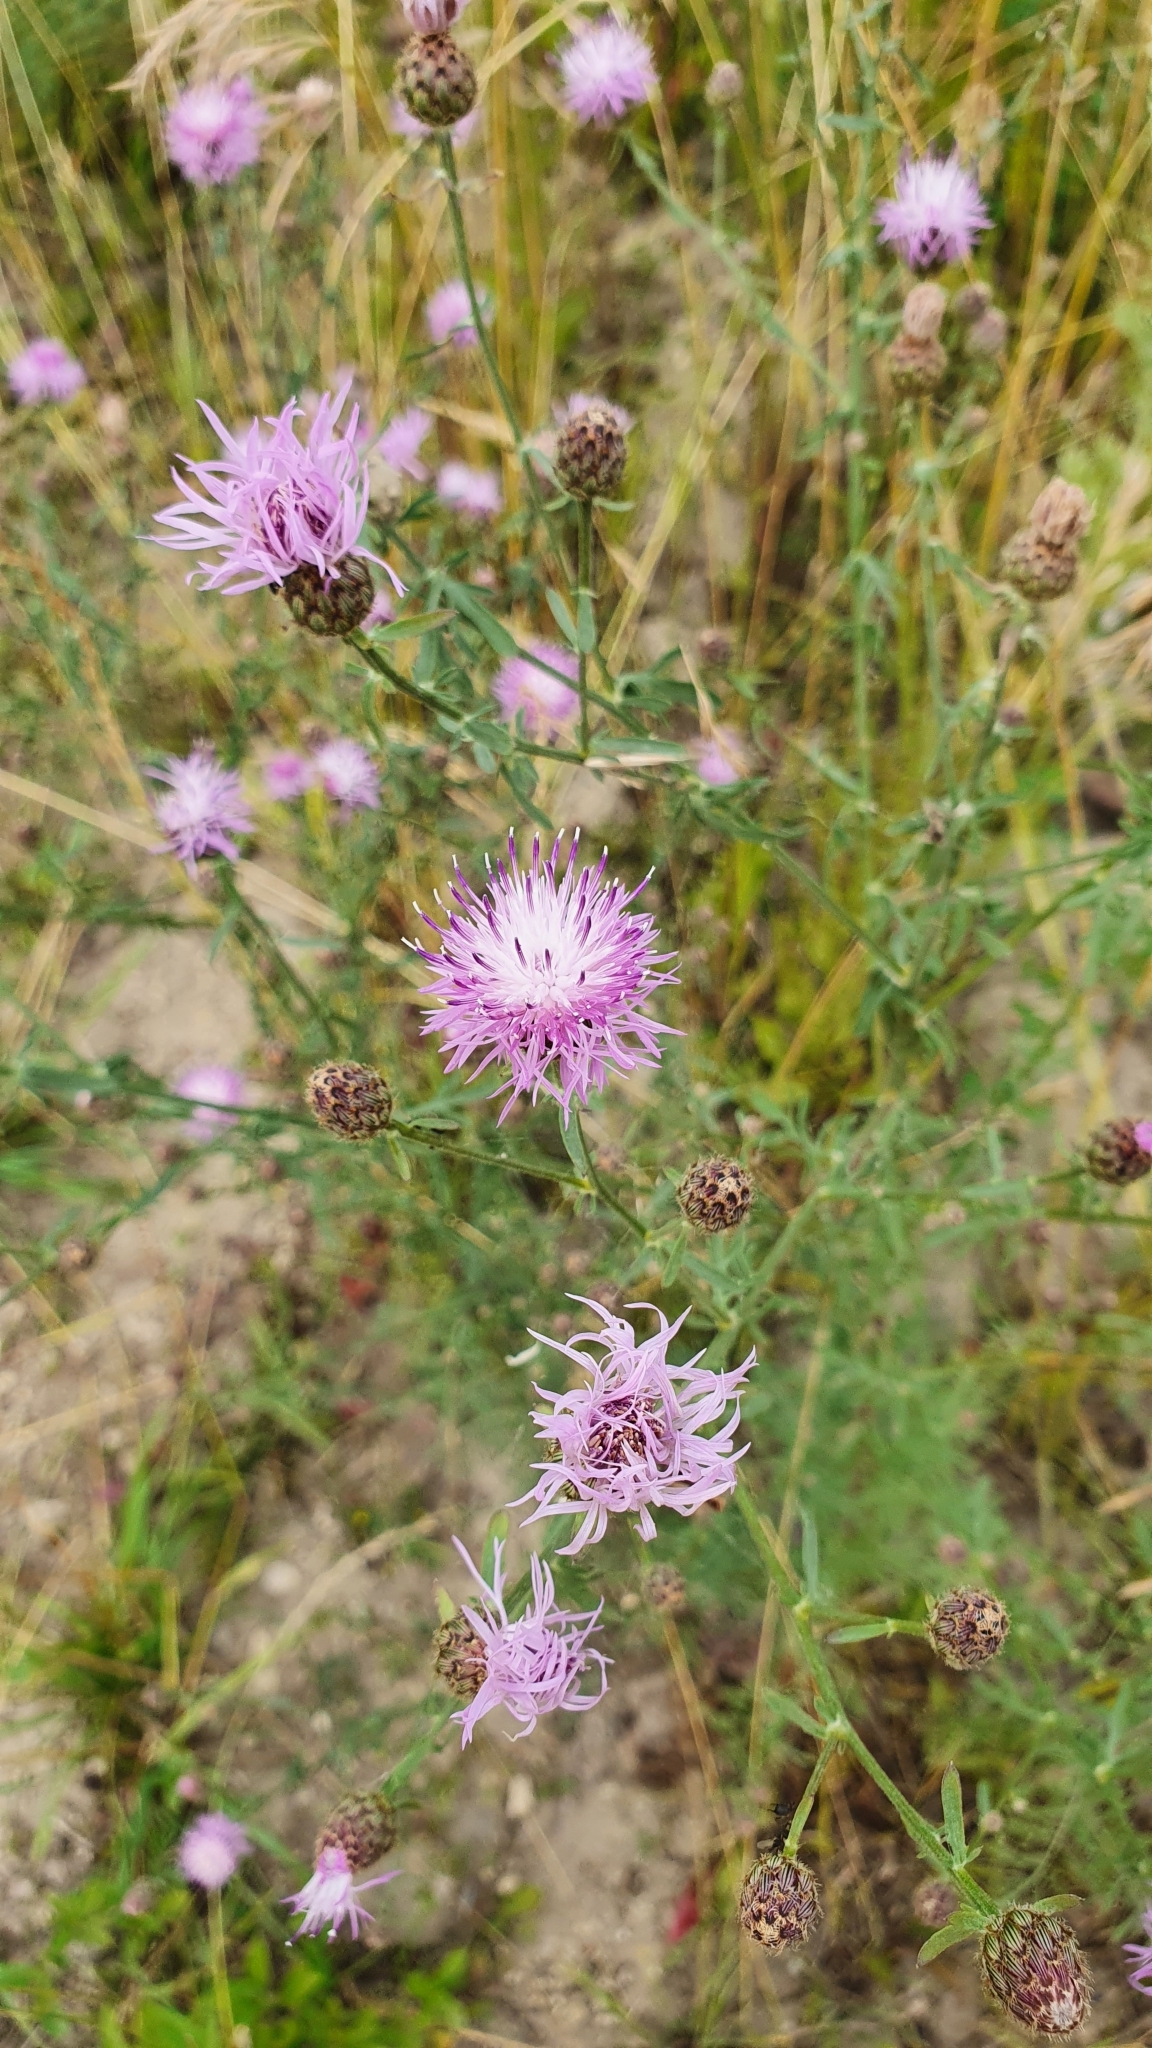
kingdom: Plantae
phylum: Tracheophyta
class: Magnoliopsida
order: Asterales
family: Asteraceae
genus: Centaurea
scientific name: Centaurea stoebe
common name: Spotted knapweed
